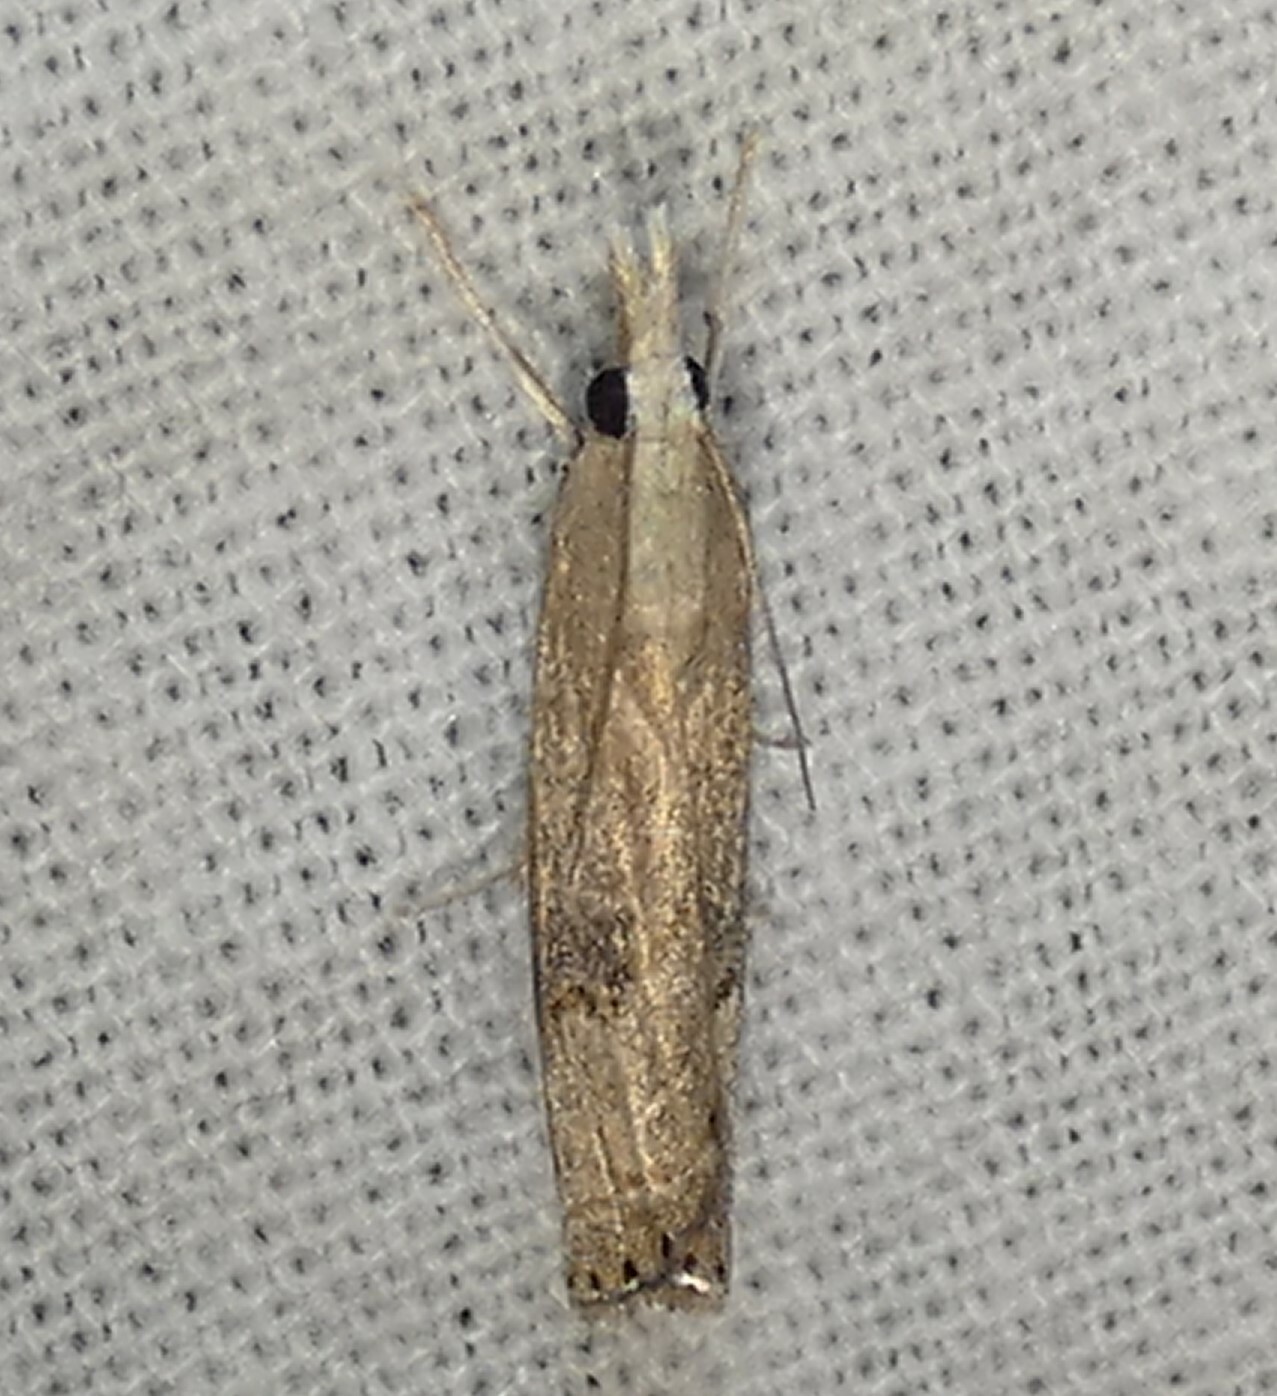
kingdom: Animalia
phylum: Arthropoda
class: Insecta
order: Lepidoptera
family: Crambidae
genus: Parapediasia
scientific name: Parapediasia teterellus
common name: Bluegrass webworm moth
